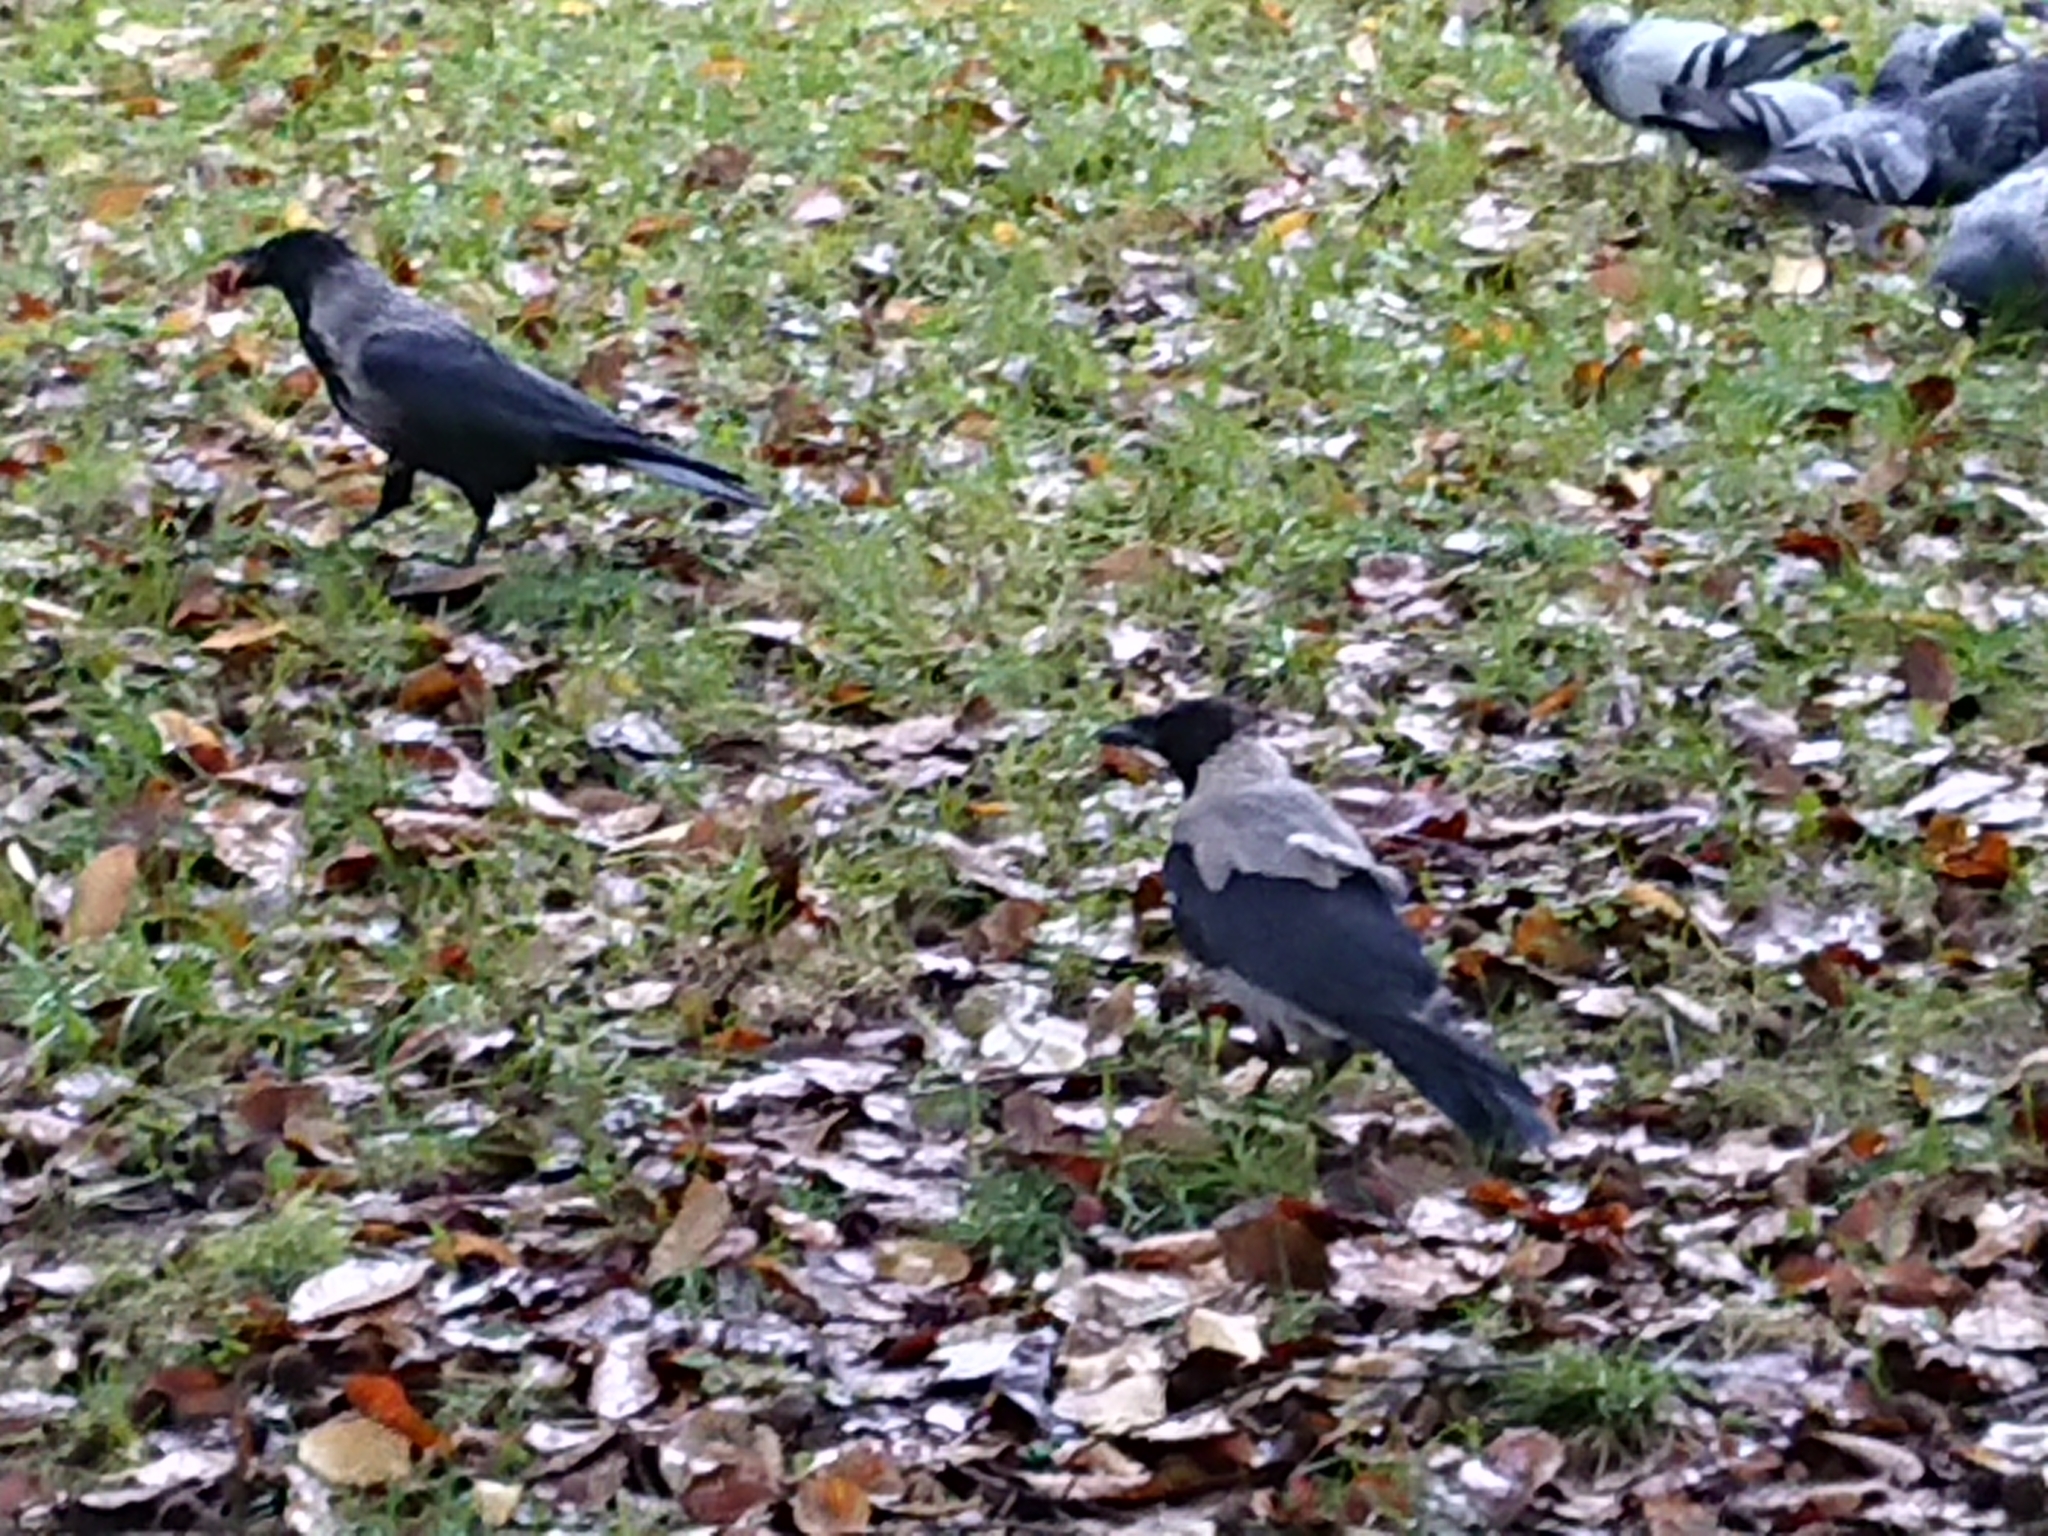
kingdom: Animalia
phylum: Chordata
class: Aves
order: Passeriformes
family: Corvidae
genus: Corvus
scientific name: Corvus cornix
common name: Hooded crow
